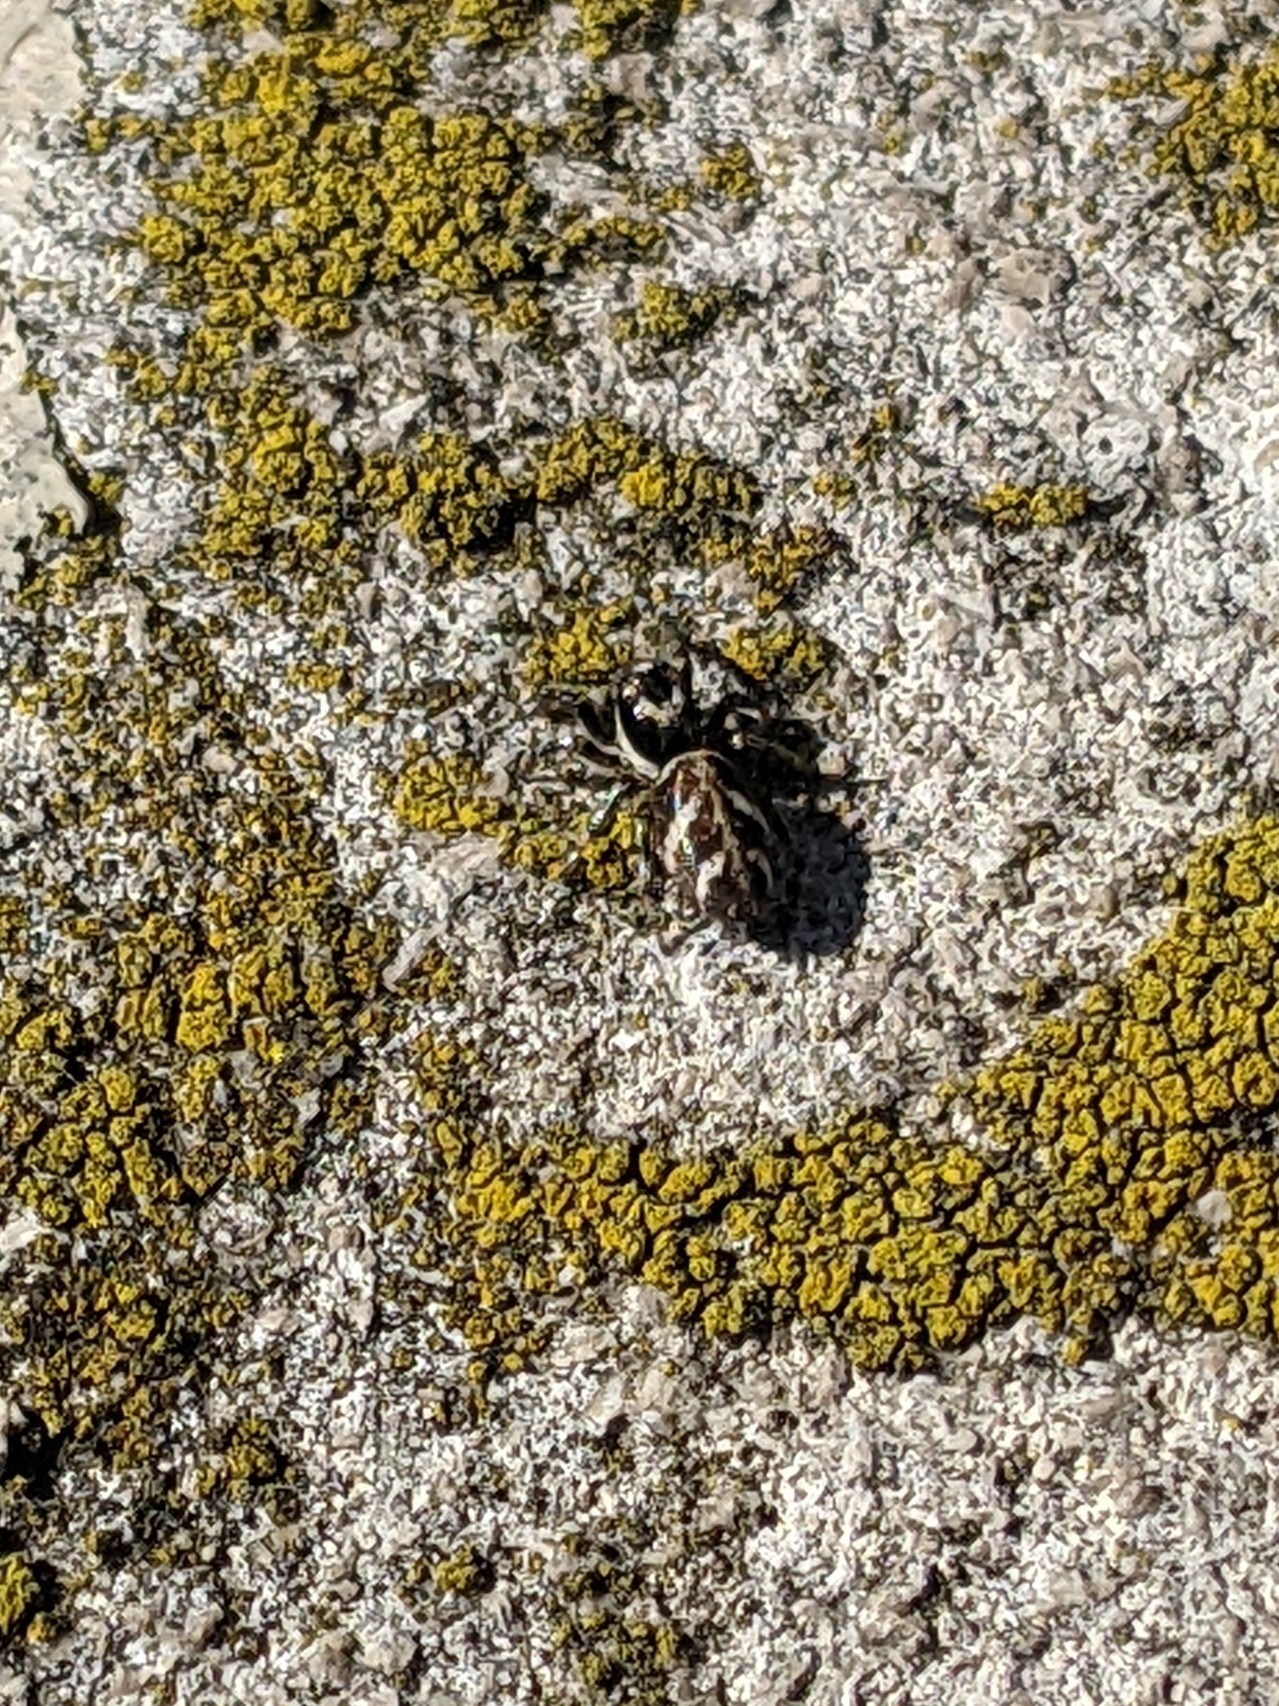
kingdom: Animalia
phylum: Arthropoda
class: Arachnida
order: Araneae
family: Salticidae
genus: Salticus
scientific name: Salticus scenicus
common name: Zebra jumper
